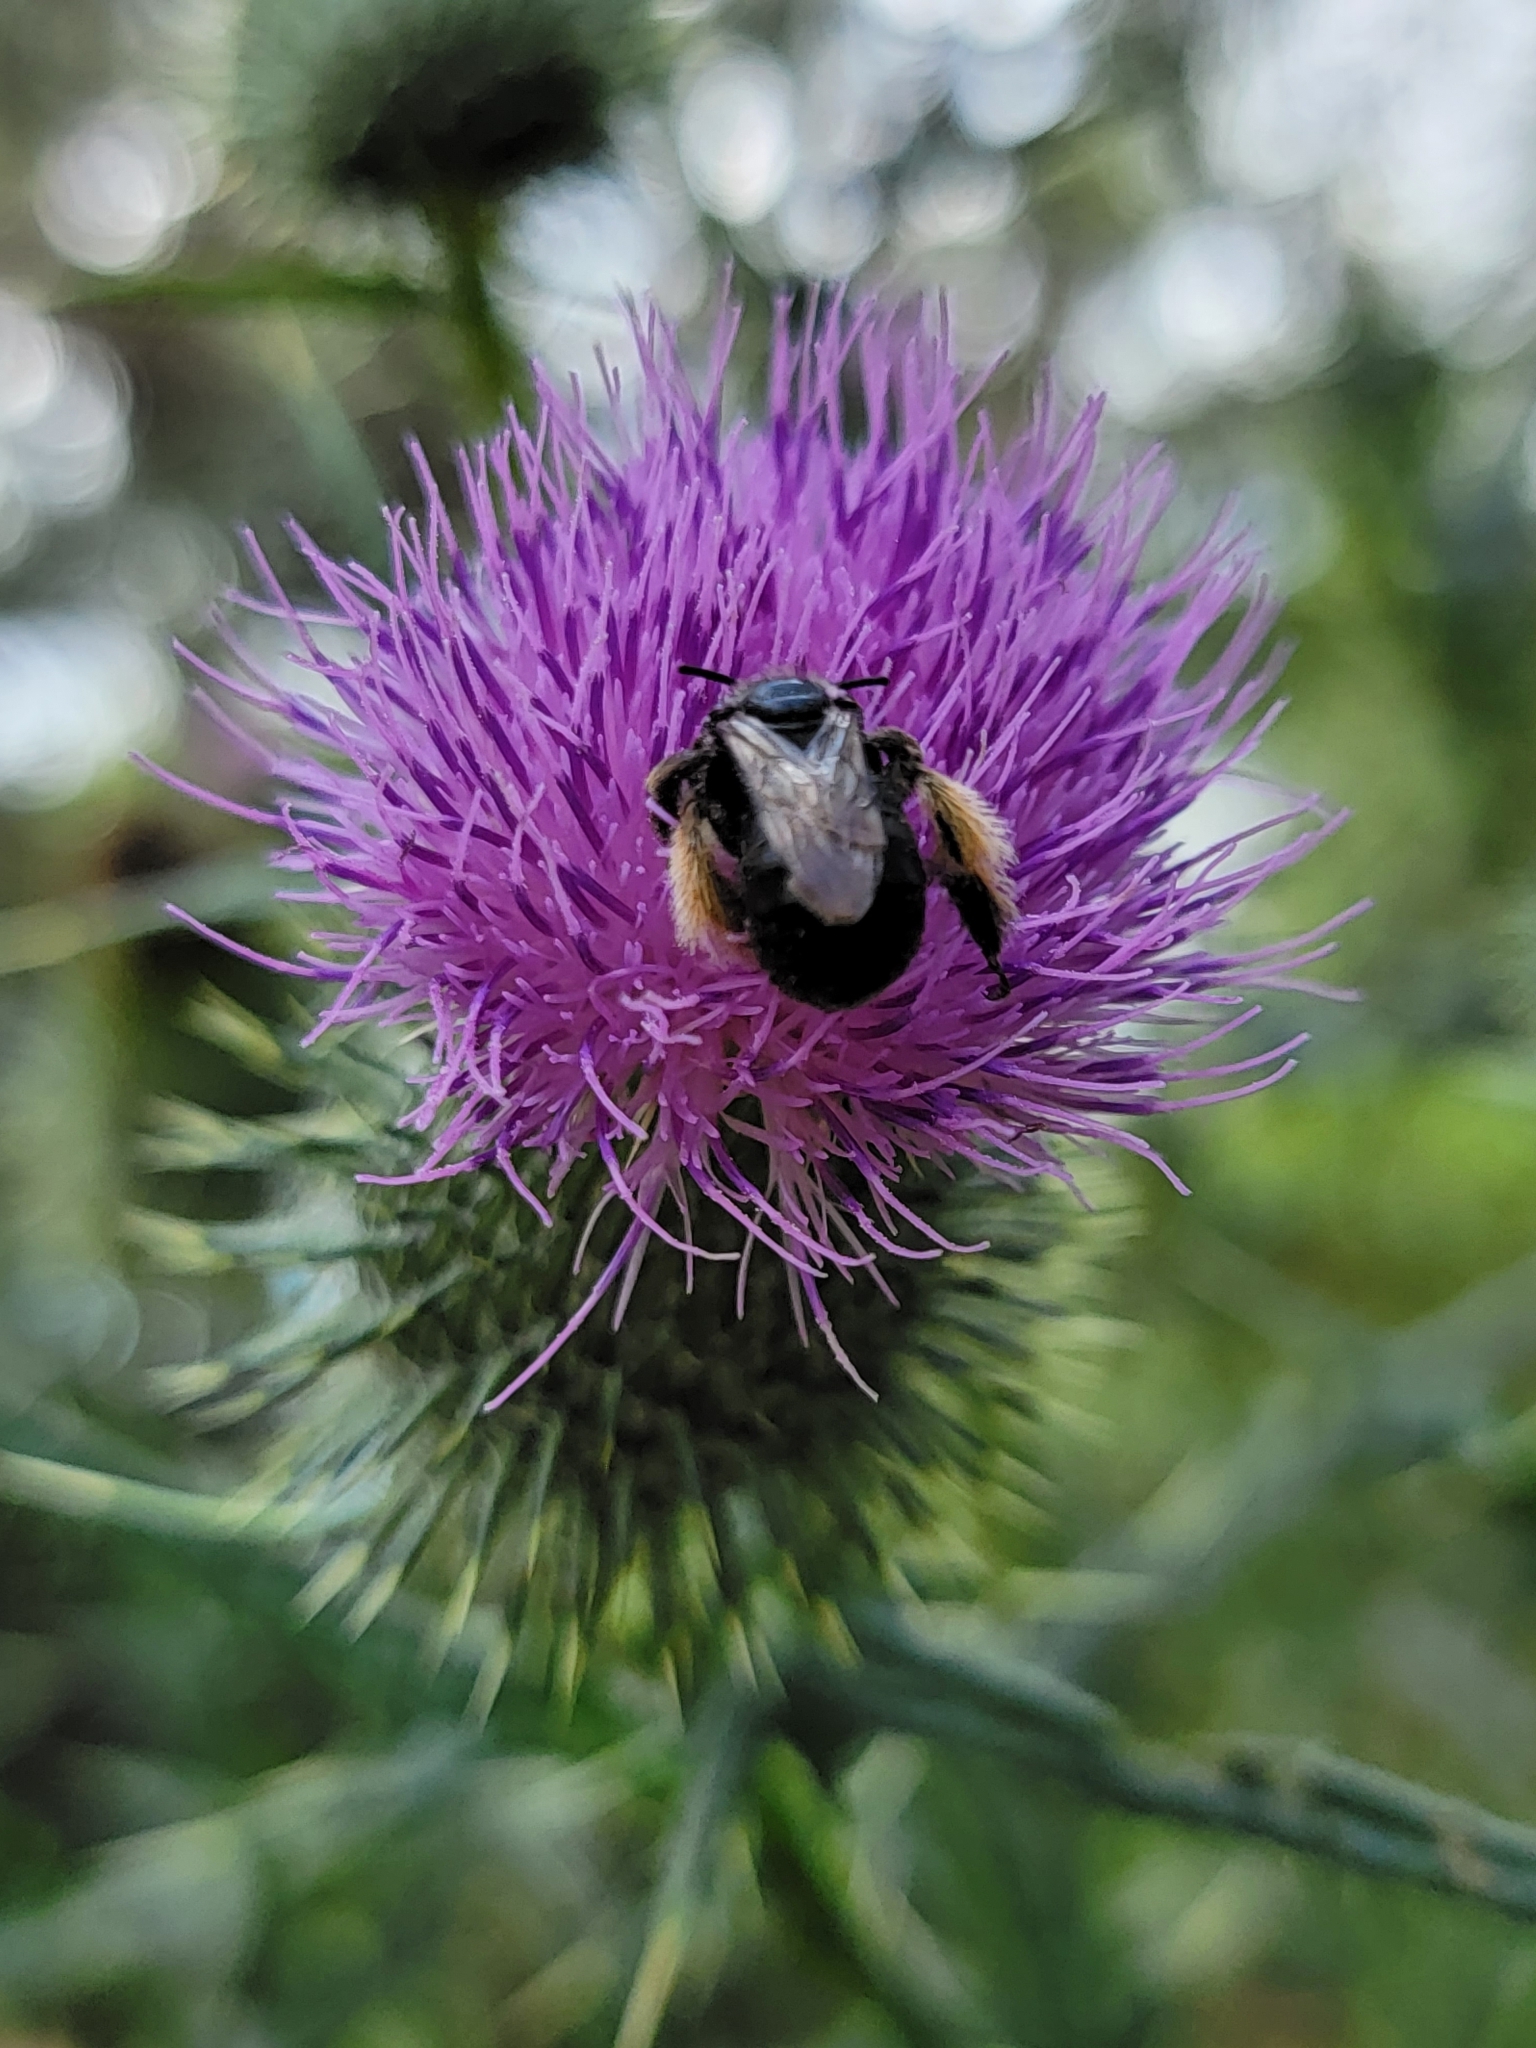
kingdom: Animalia
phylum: Arthropoda
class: Insecta
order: Hymenoptera
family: Apidae
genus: Melissodes
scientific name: Melissodes desponsus
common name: Thistle long-horned bee
